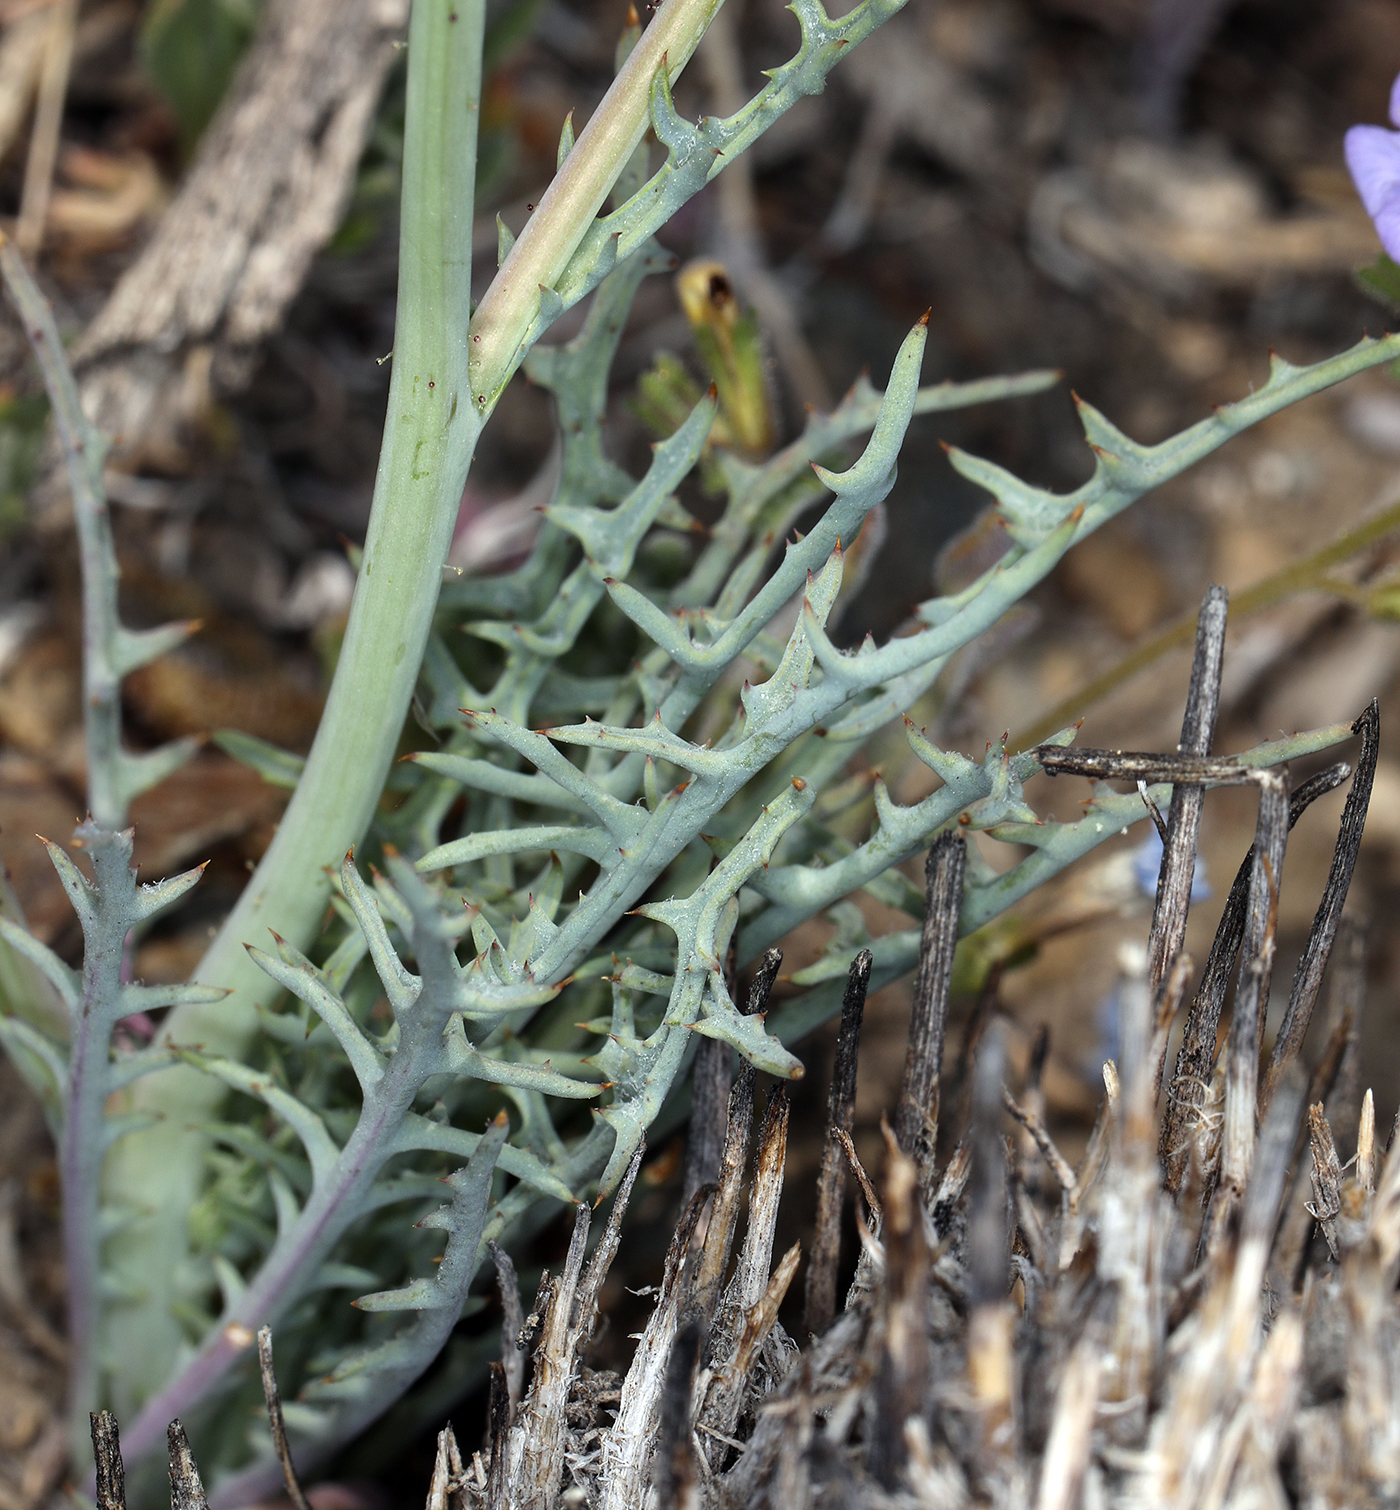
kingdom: Plantae
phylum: Tracheophyta
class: Magnoliopsida
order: Asterales
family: Asteraceae
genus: Calycoseris
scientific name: Calycoseris parryi
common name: Yellow tackstem
